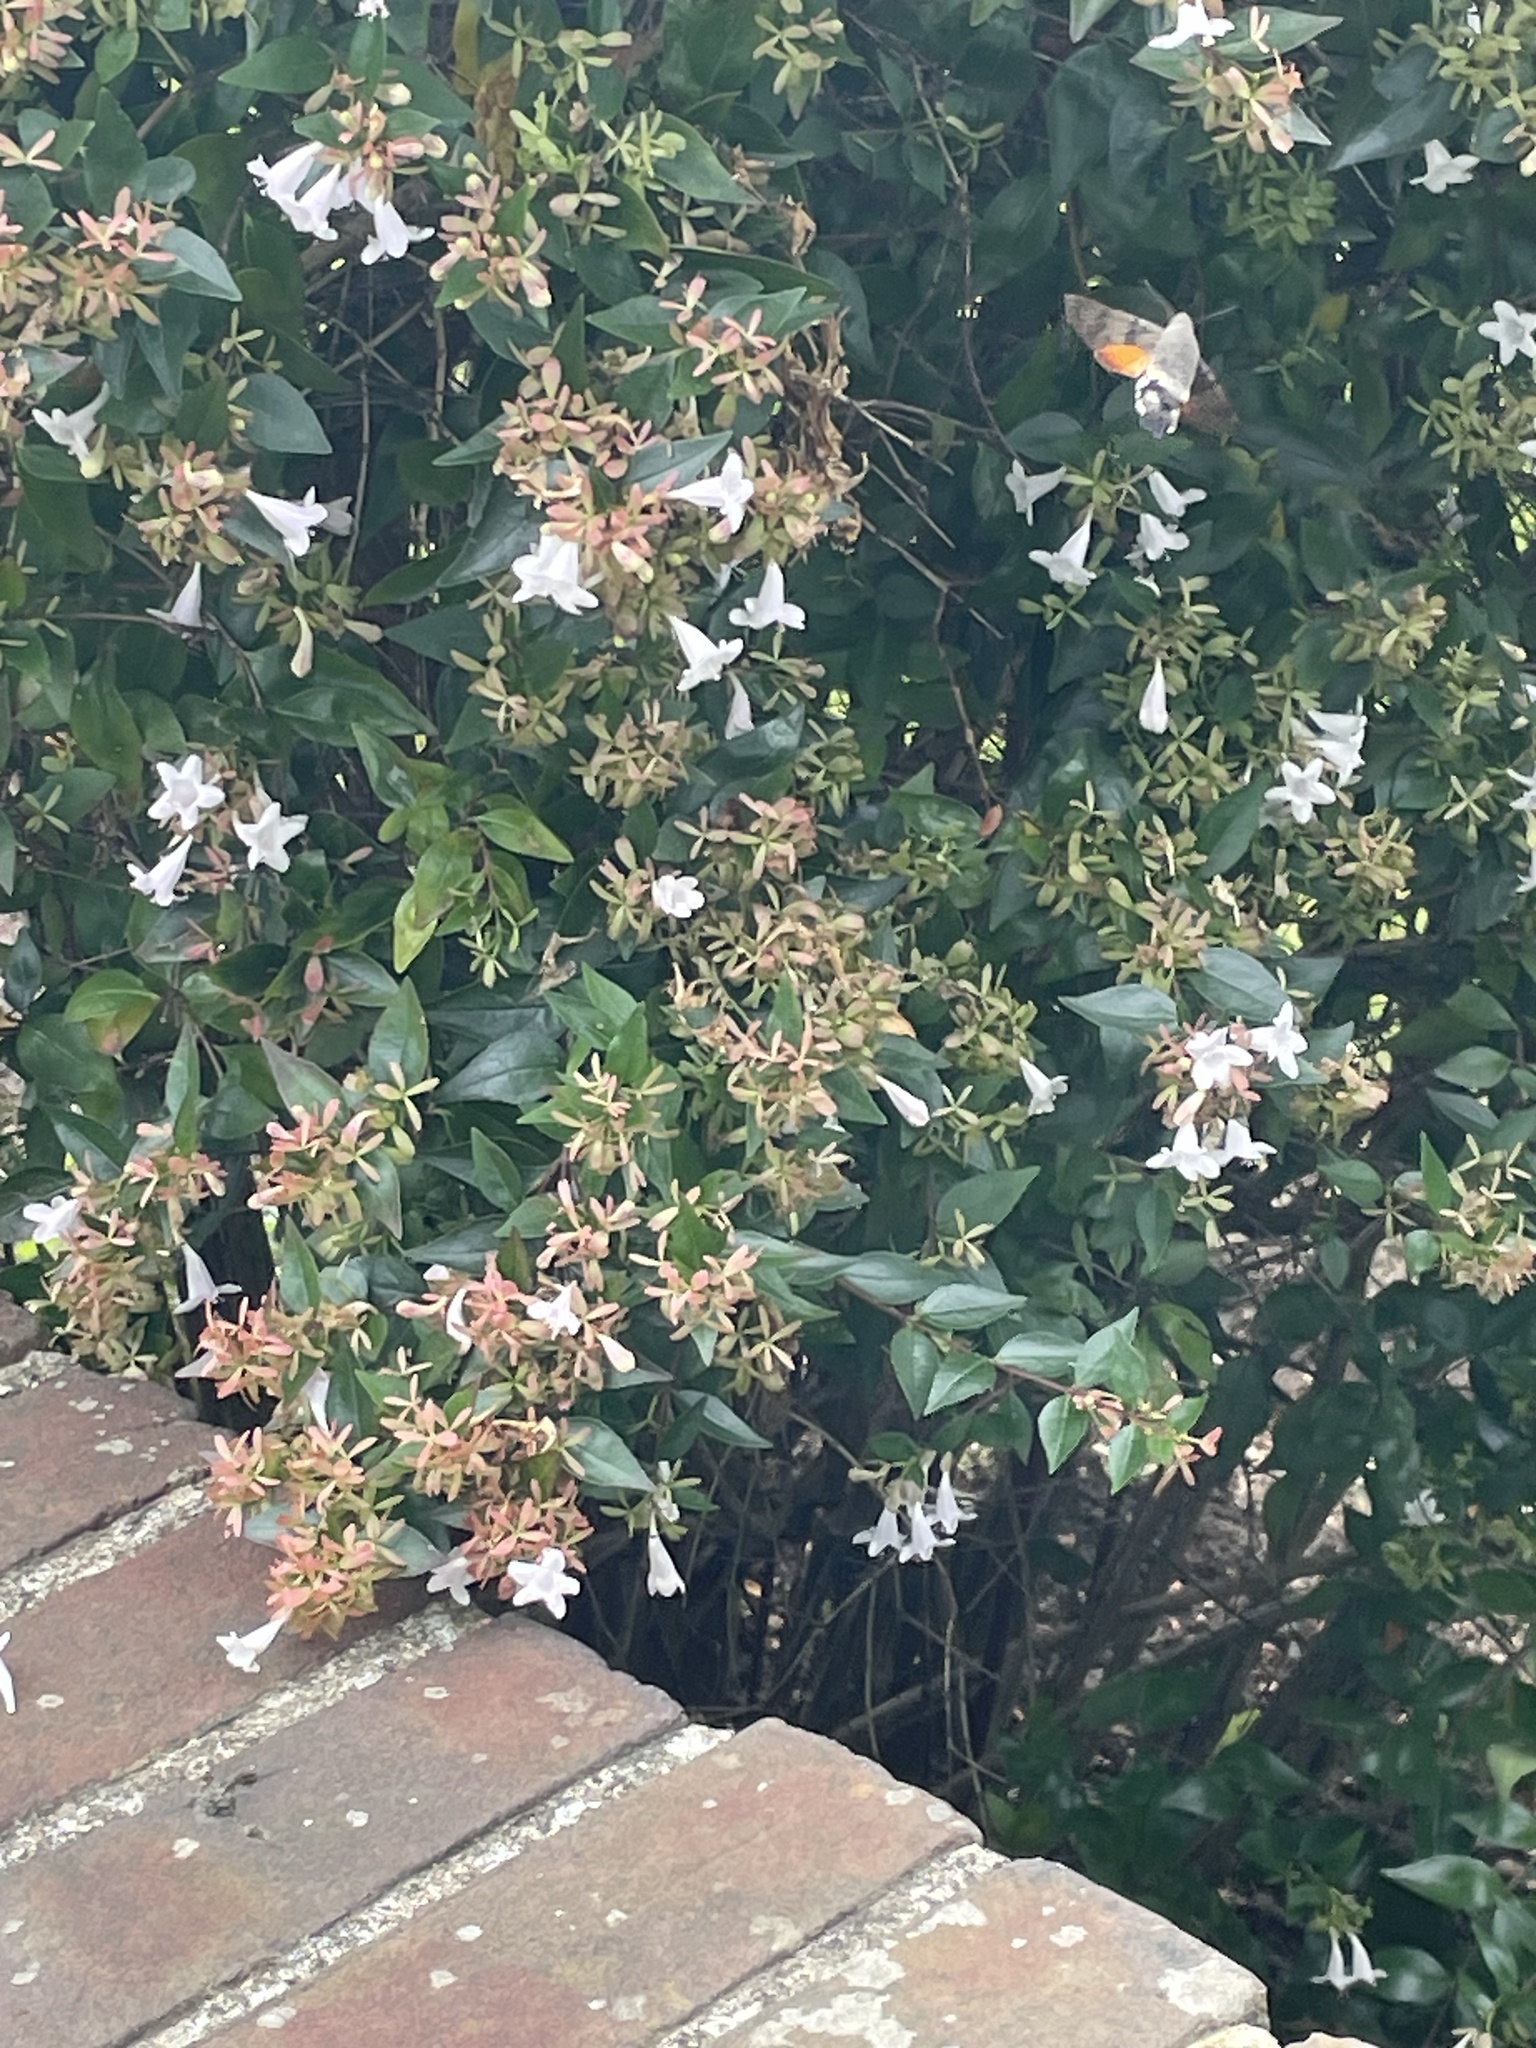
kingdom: Animalia
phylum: Arthropoda
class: Insecta
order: Lepidoptera
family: Sphingidae
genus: Macroglossum
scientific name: Macroglossum stellatarum
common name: Humming-bird hawk-moth
